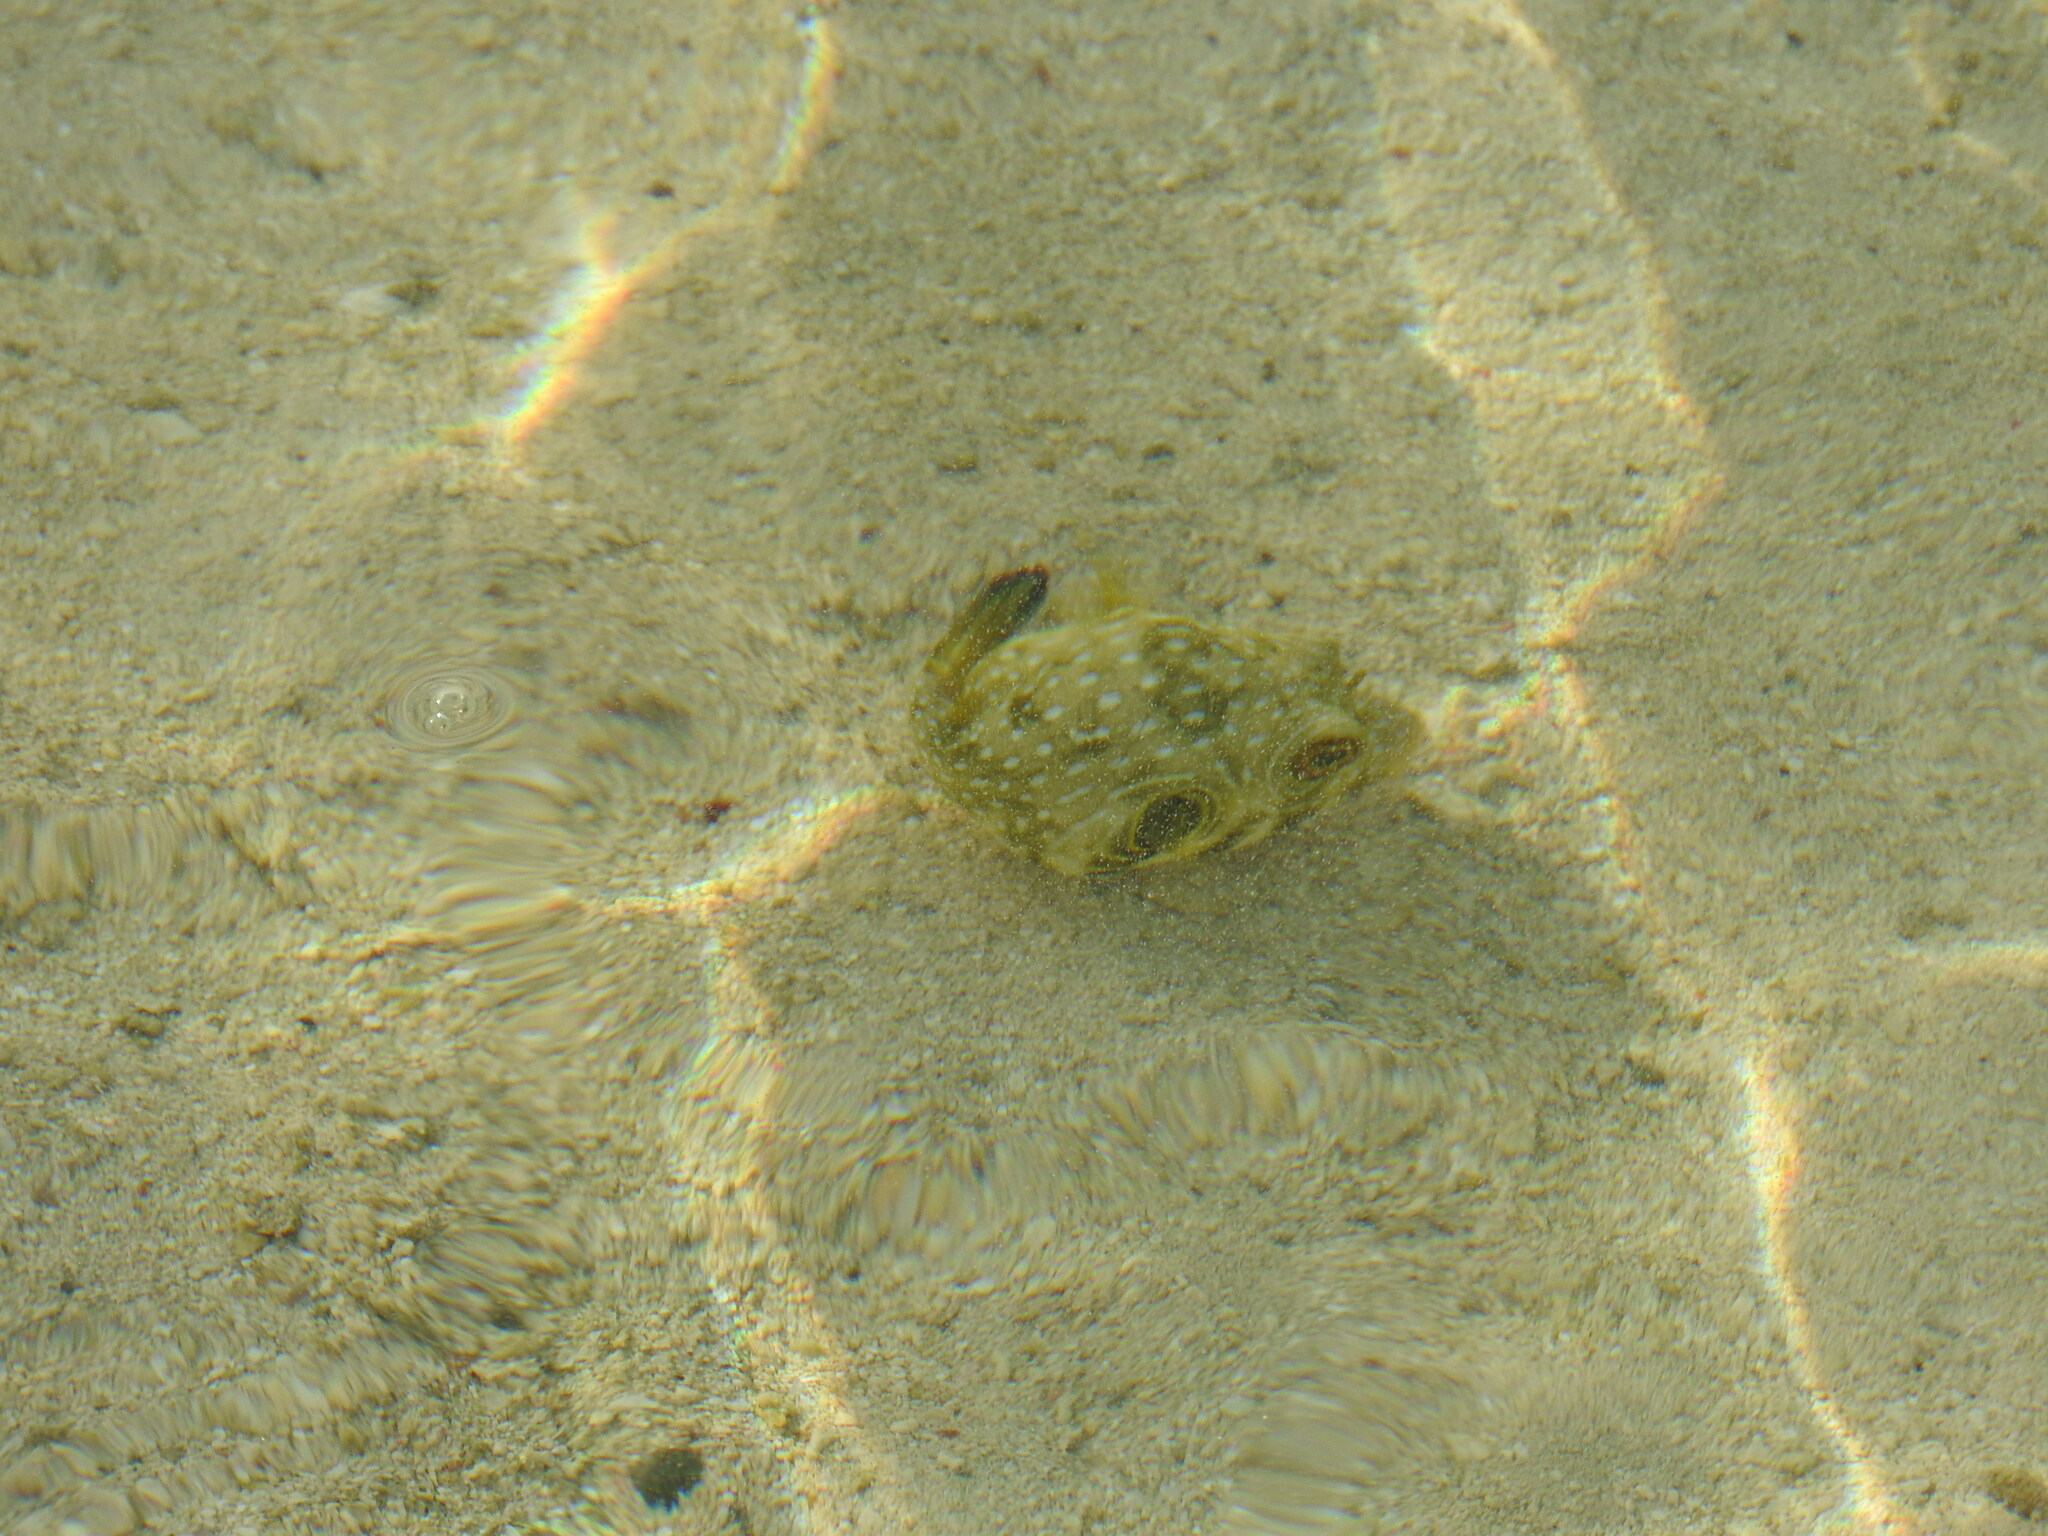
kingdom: Animalia
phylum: Chordata
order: Tetraodontiformes
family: Tetraodontidae
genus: Arothron
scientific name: Arothron hispidus
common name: Stripebelly puffer
